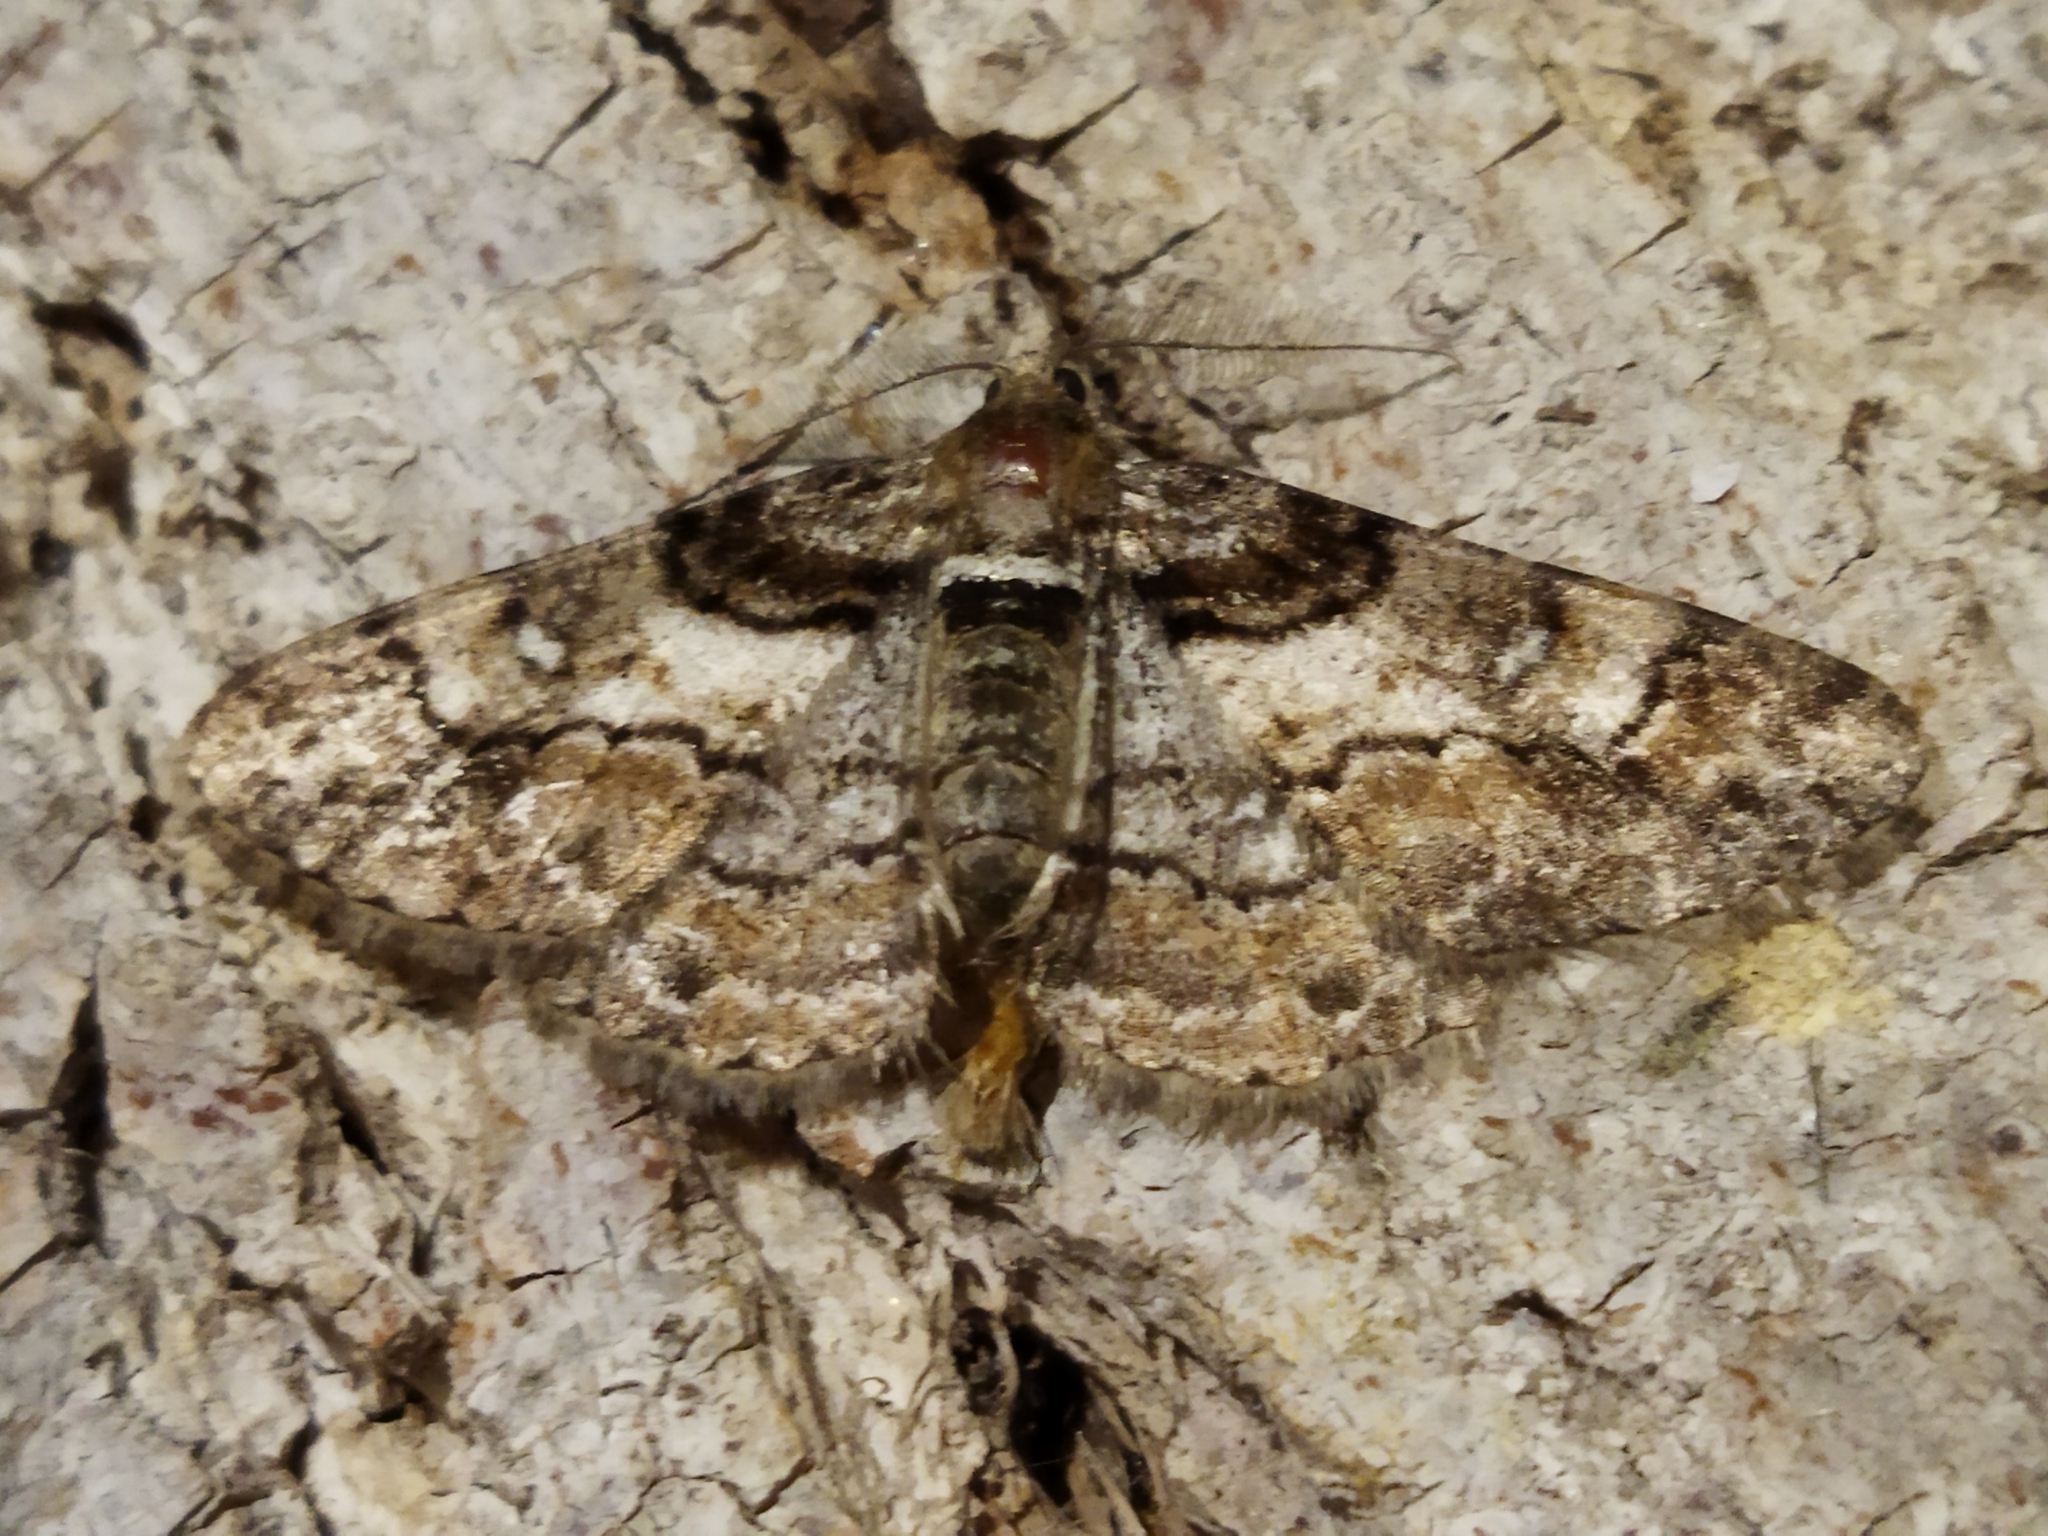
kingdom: Animalia
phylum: Arthropoda
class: Insecta
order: Lepidoptera
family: Geometridae
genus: Cleora
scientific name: Cleora cinctaria
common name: Ringed carpet
